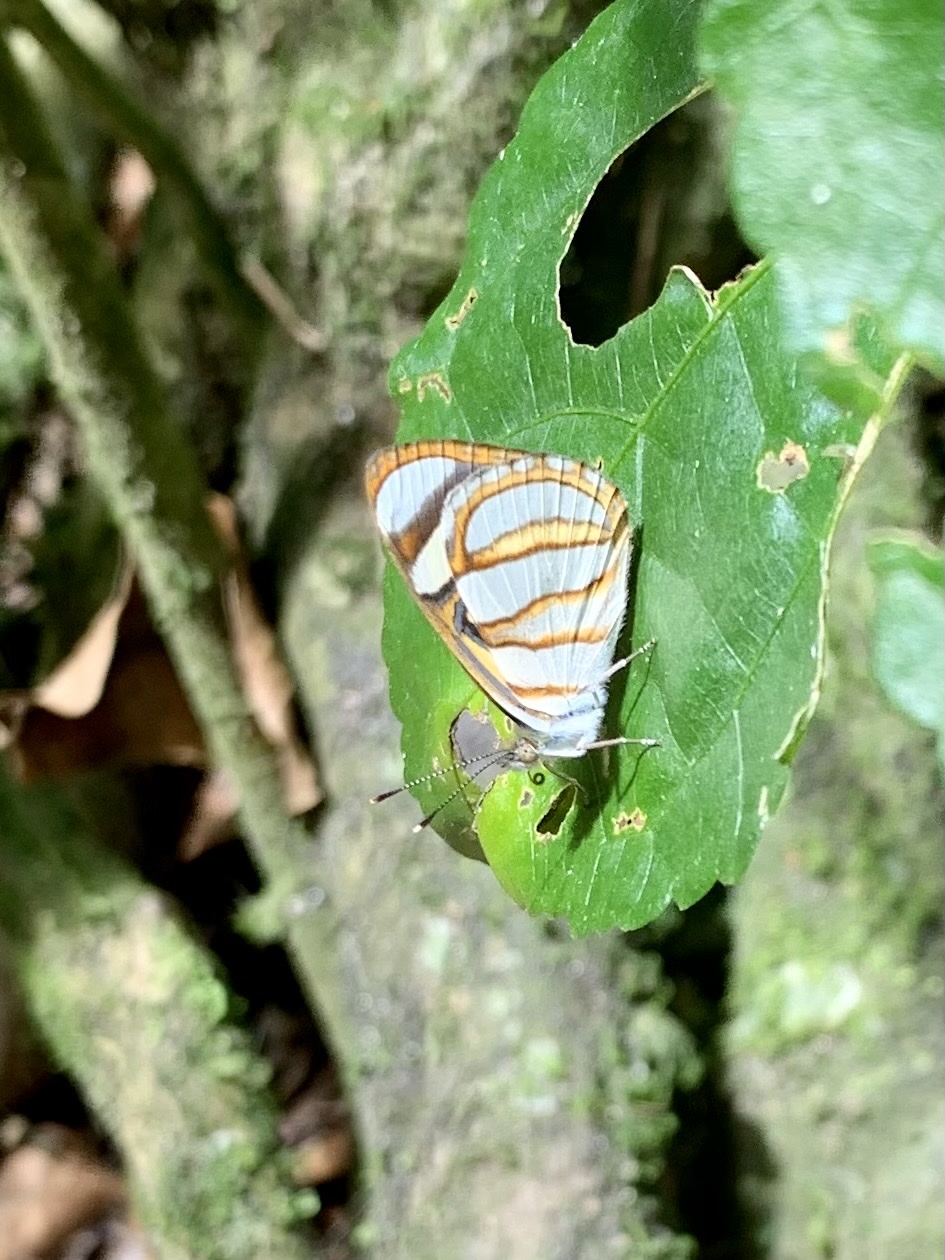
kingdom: Animalia
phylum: Arthropoda
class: Insecta
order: Lepidoptera
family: Nymphalidae
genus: Dynamine
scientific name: Dynamine setabis
